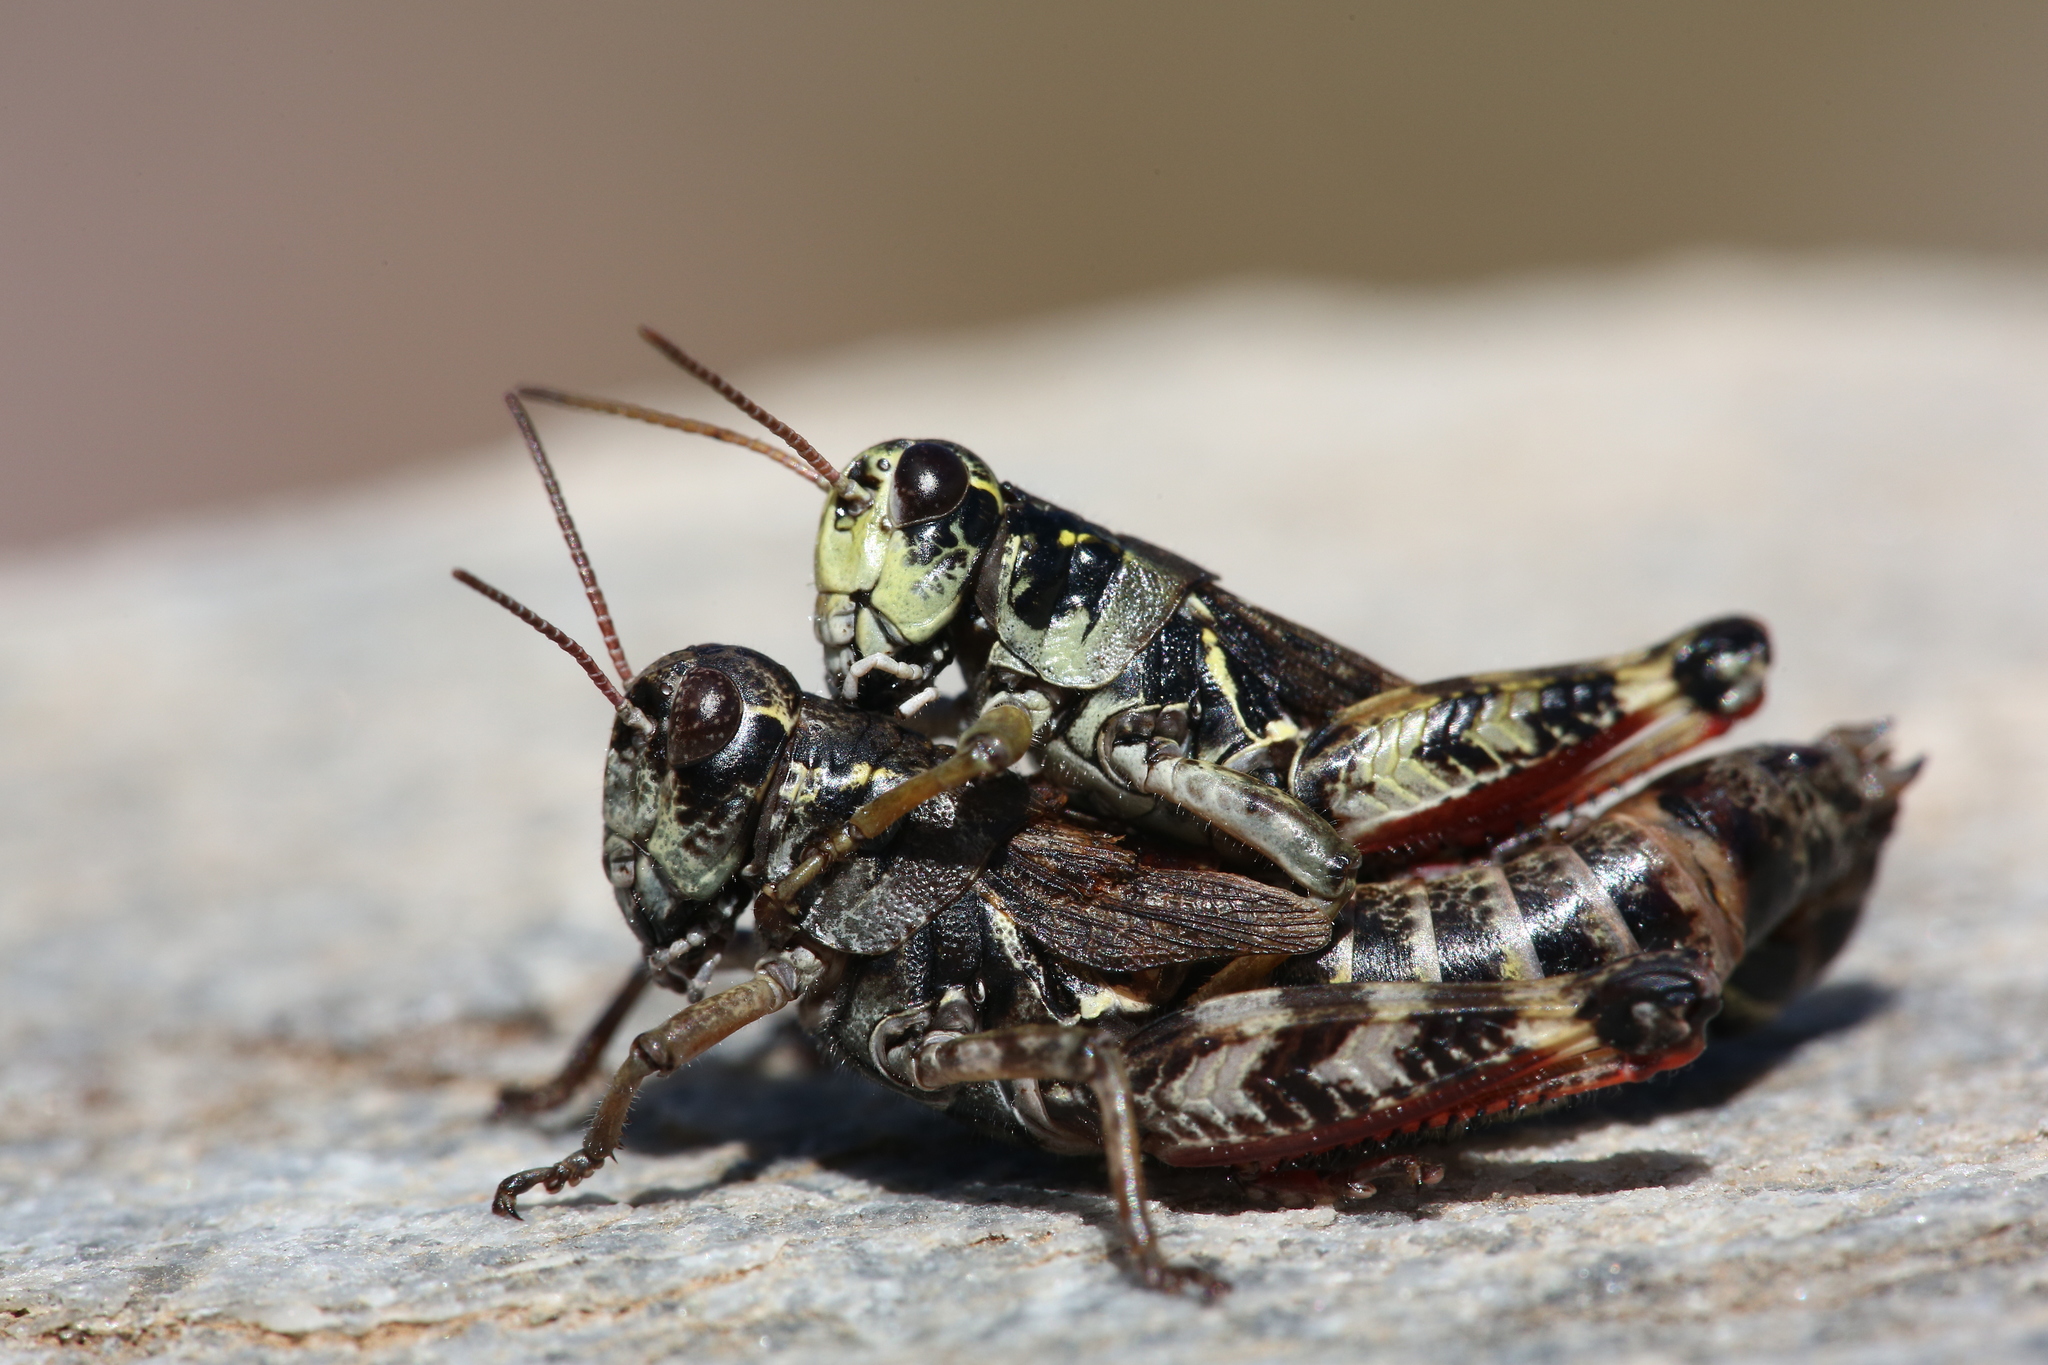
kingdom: Animalia
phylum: Arthropoda
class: Insecta
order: Orthoptera
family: Acrididae
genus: Bohemanella
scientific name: Bohemanella frigida
